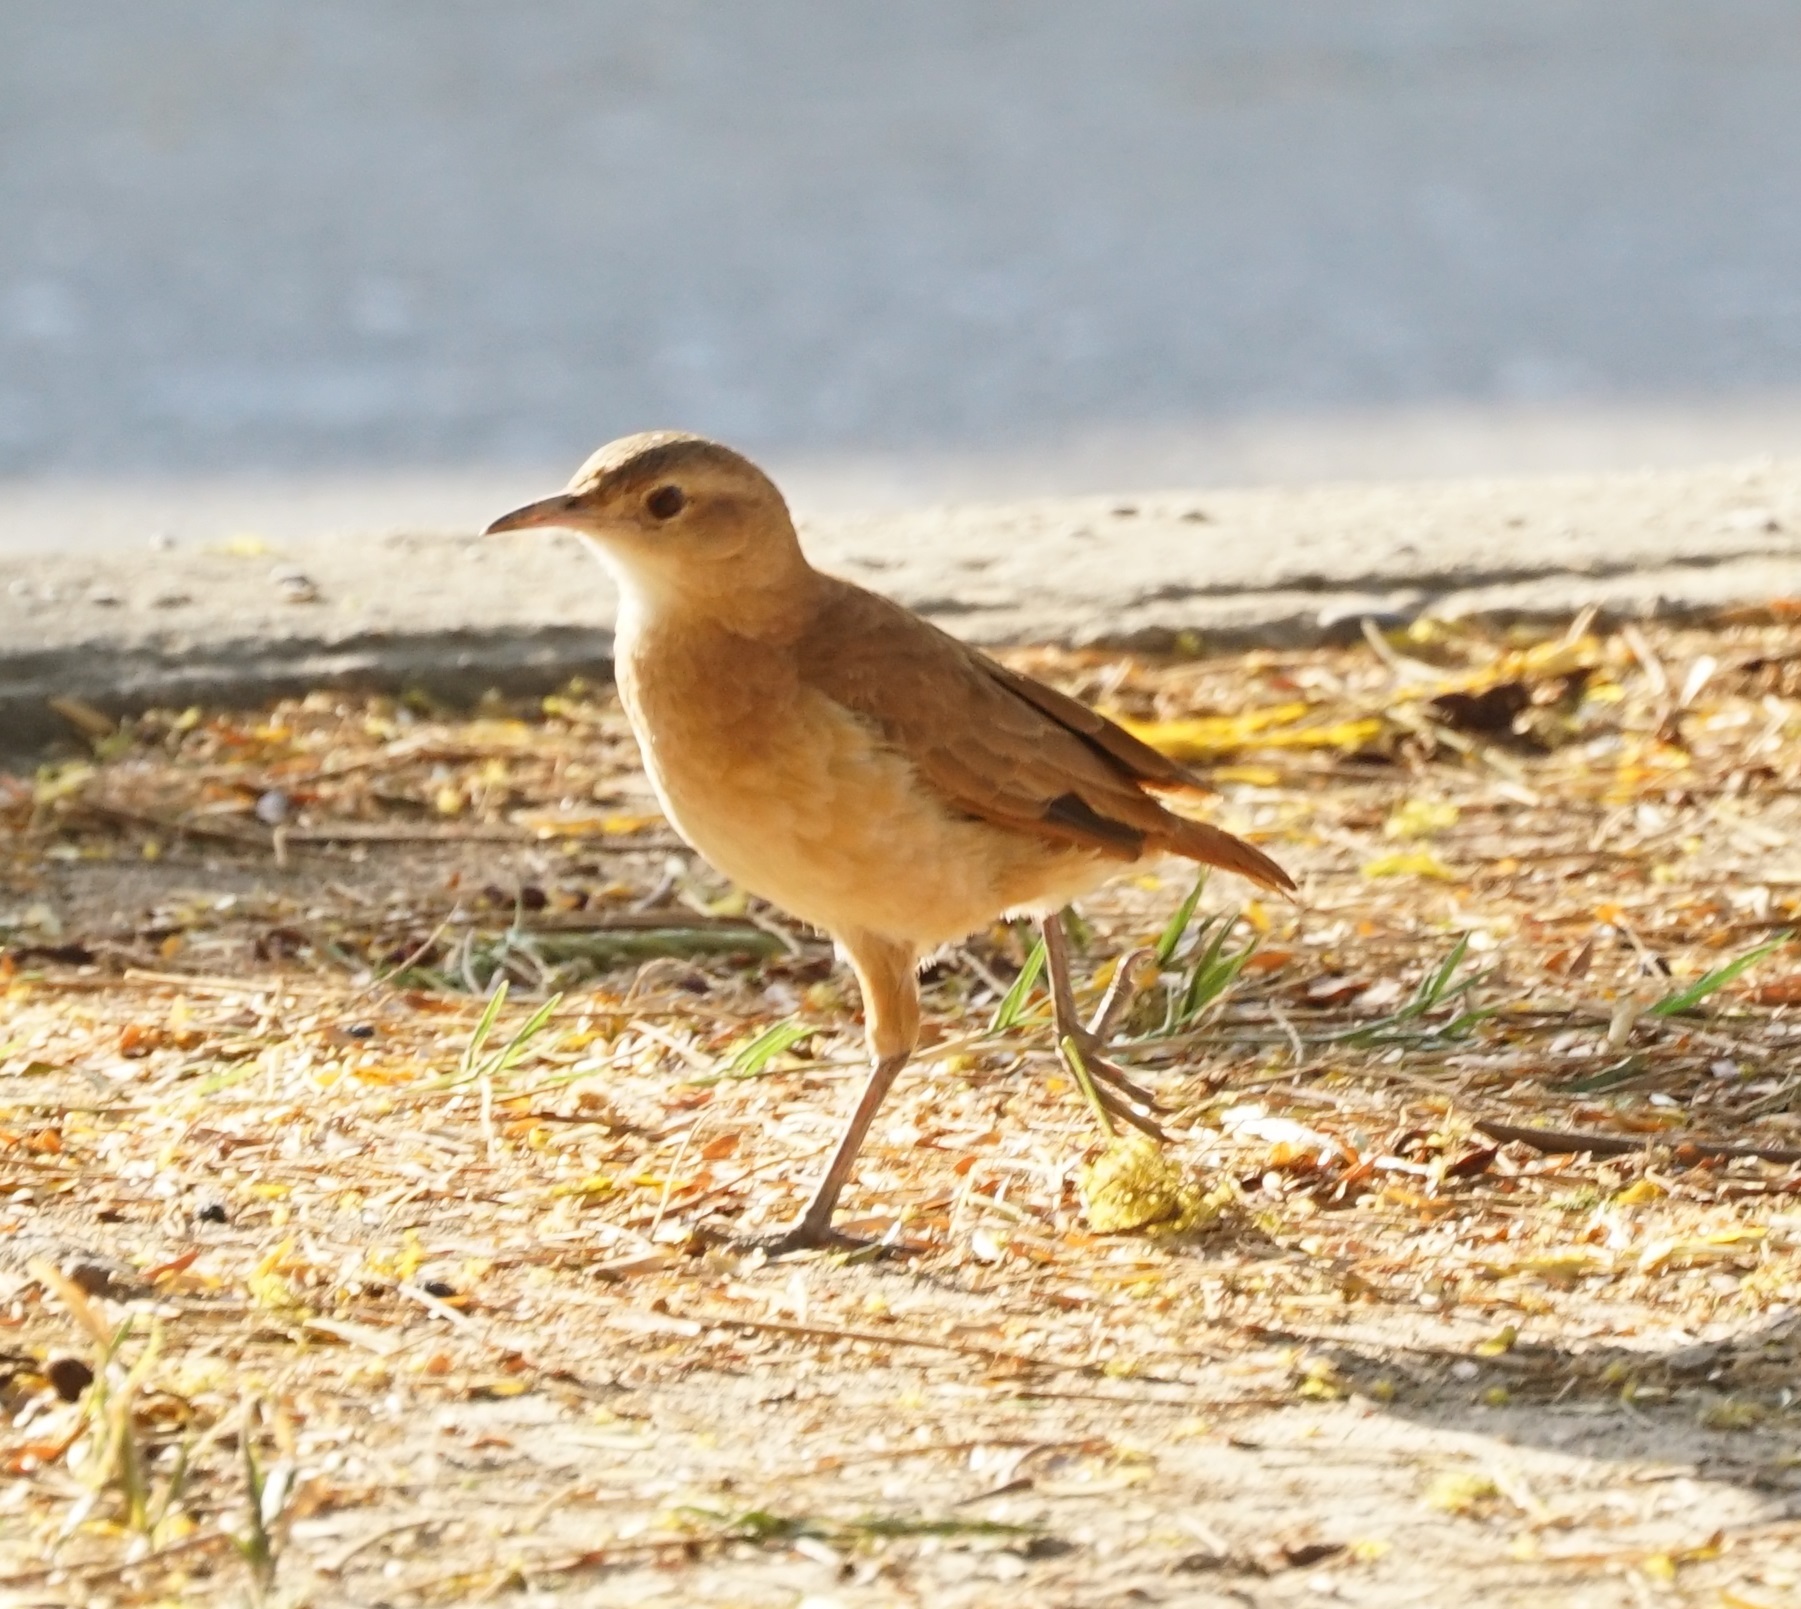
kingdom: Animalia
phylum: Chordata
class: Aves
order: Passeriformes
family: Furnariidae
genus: Furnarius
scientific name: Furnarius rufus
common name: Rufous hornero
